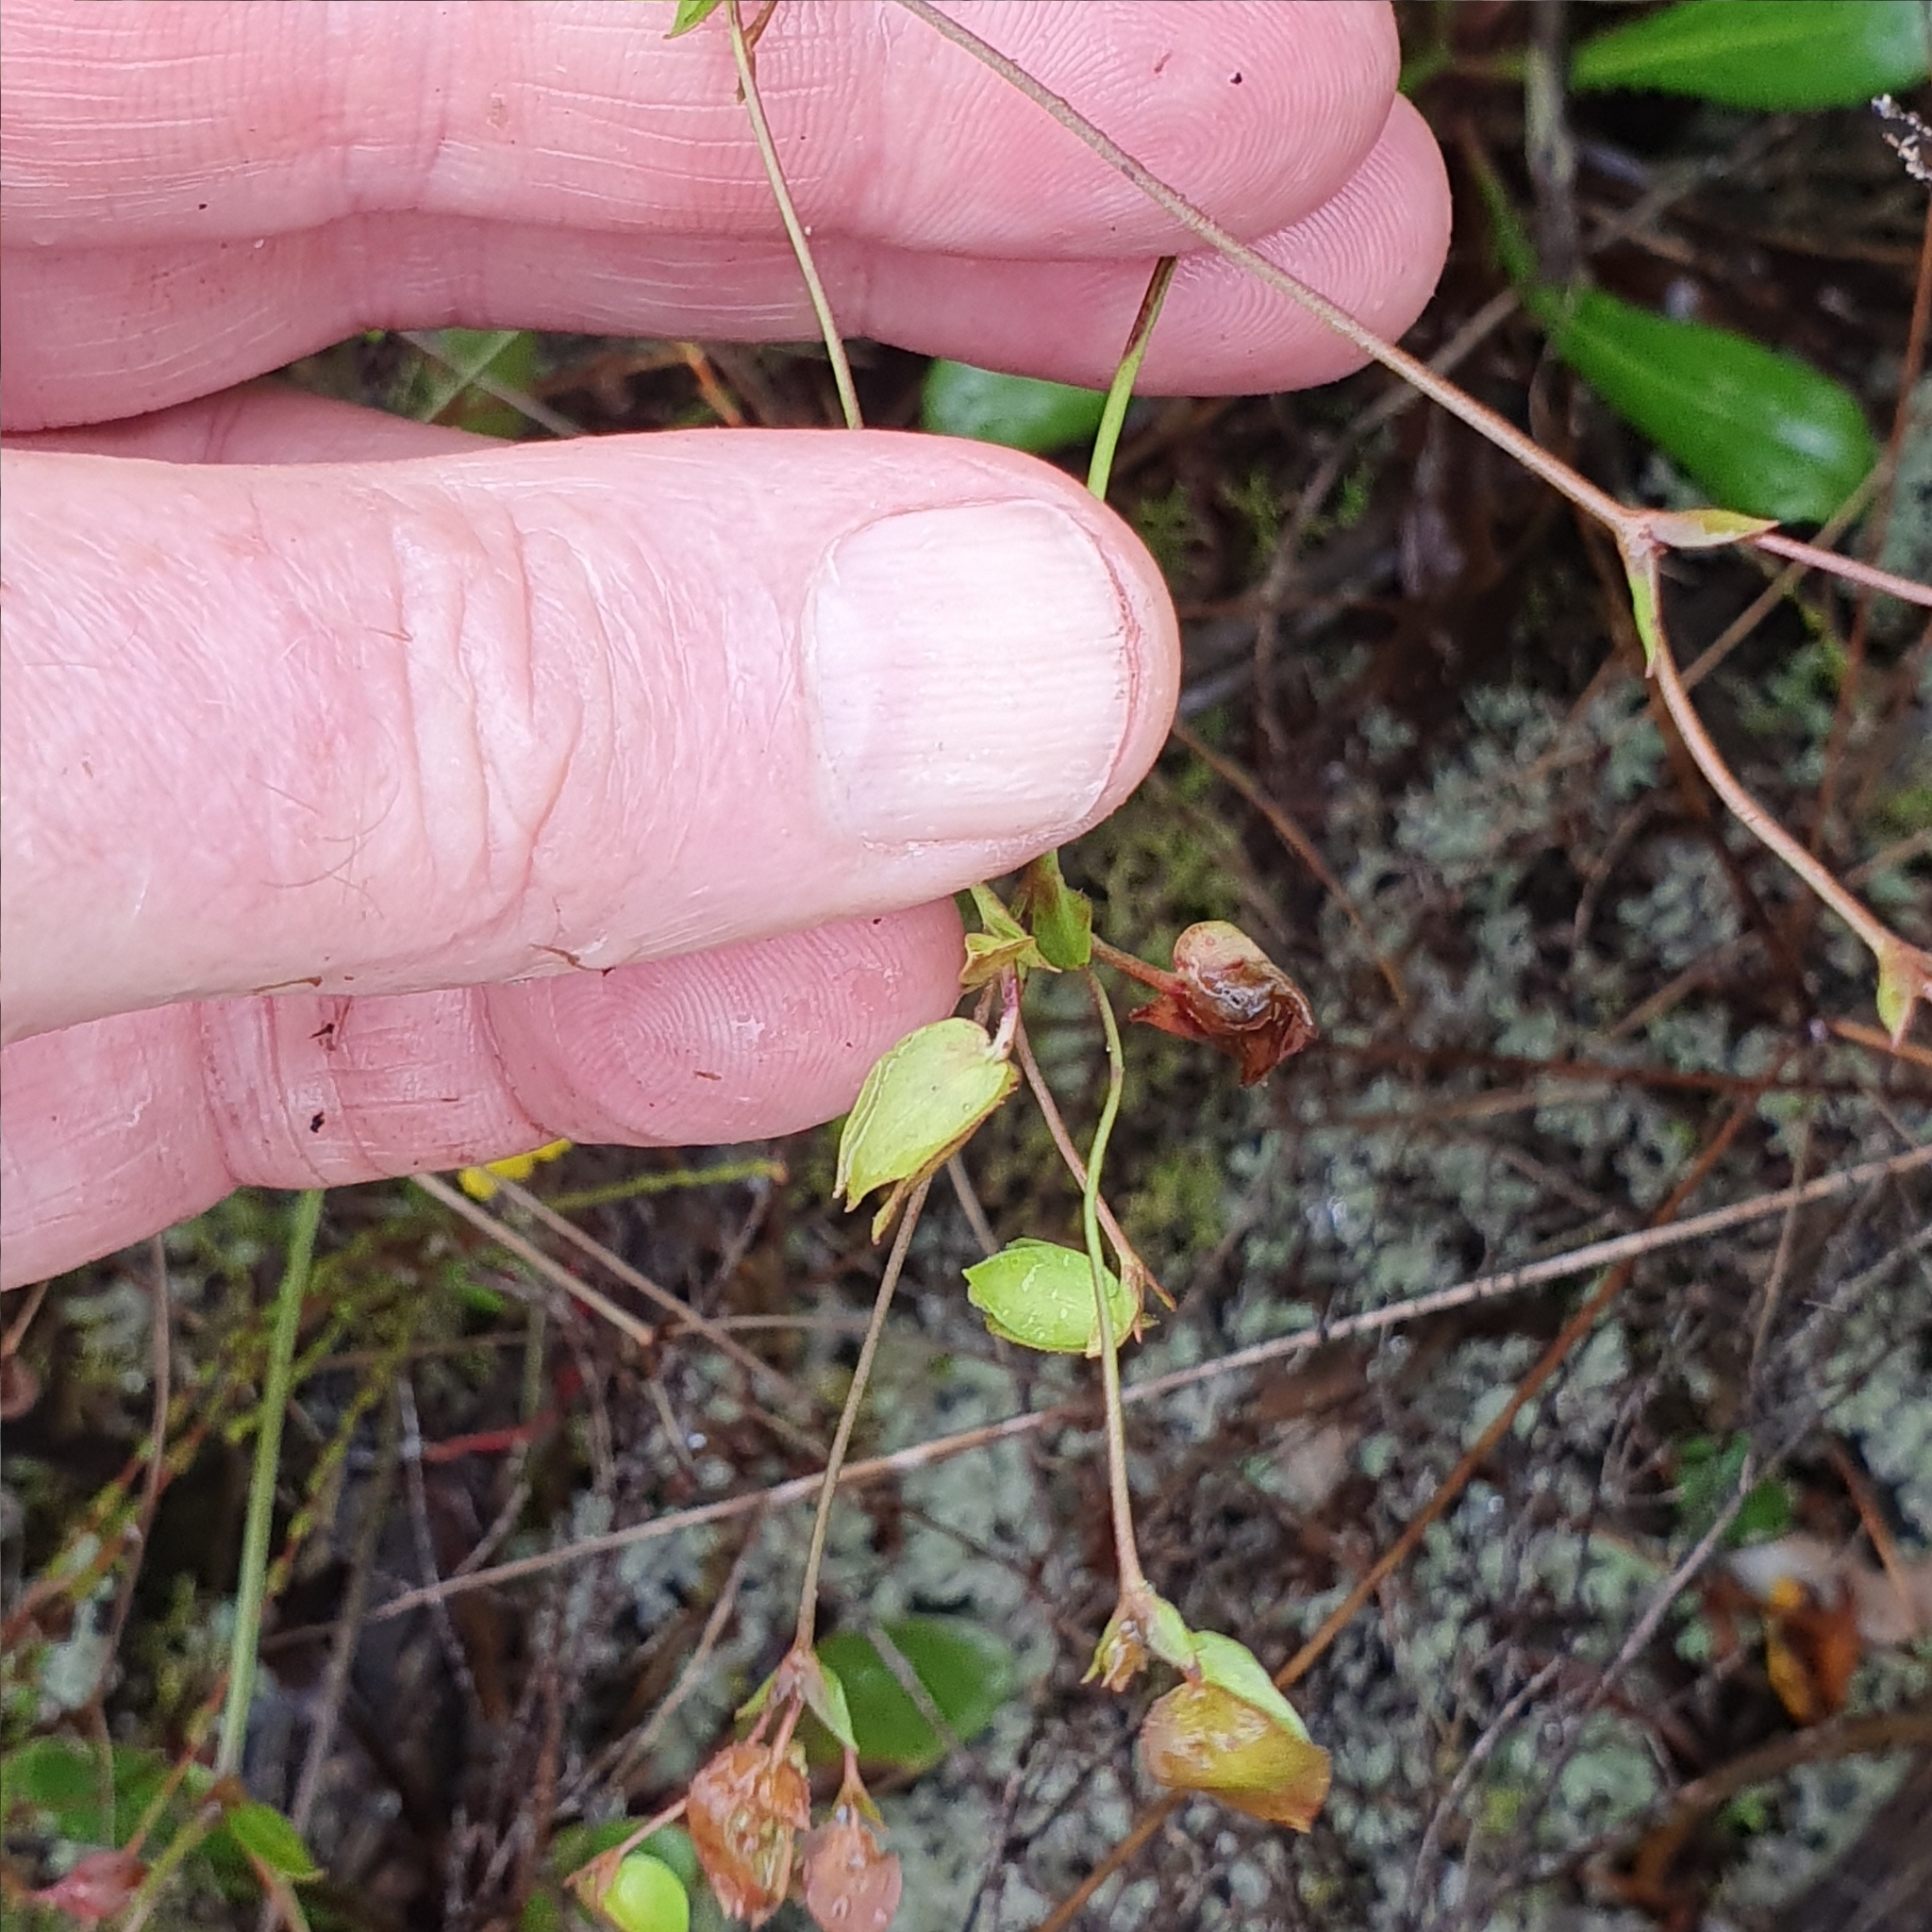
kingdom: Plantae
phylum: Tracheophyta
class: Magnoliopsida
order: Asterales
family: Goodeniaceae
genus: Goodenia
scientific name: Goodenia caroliniana
